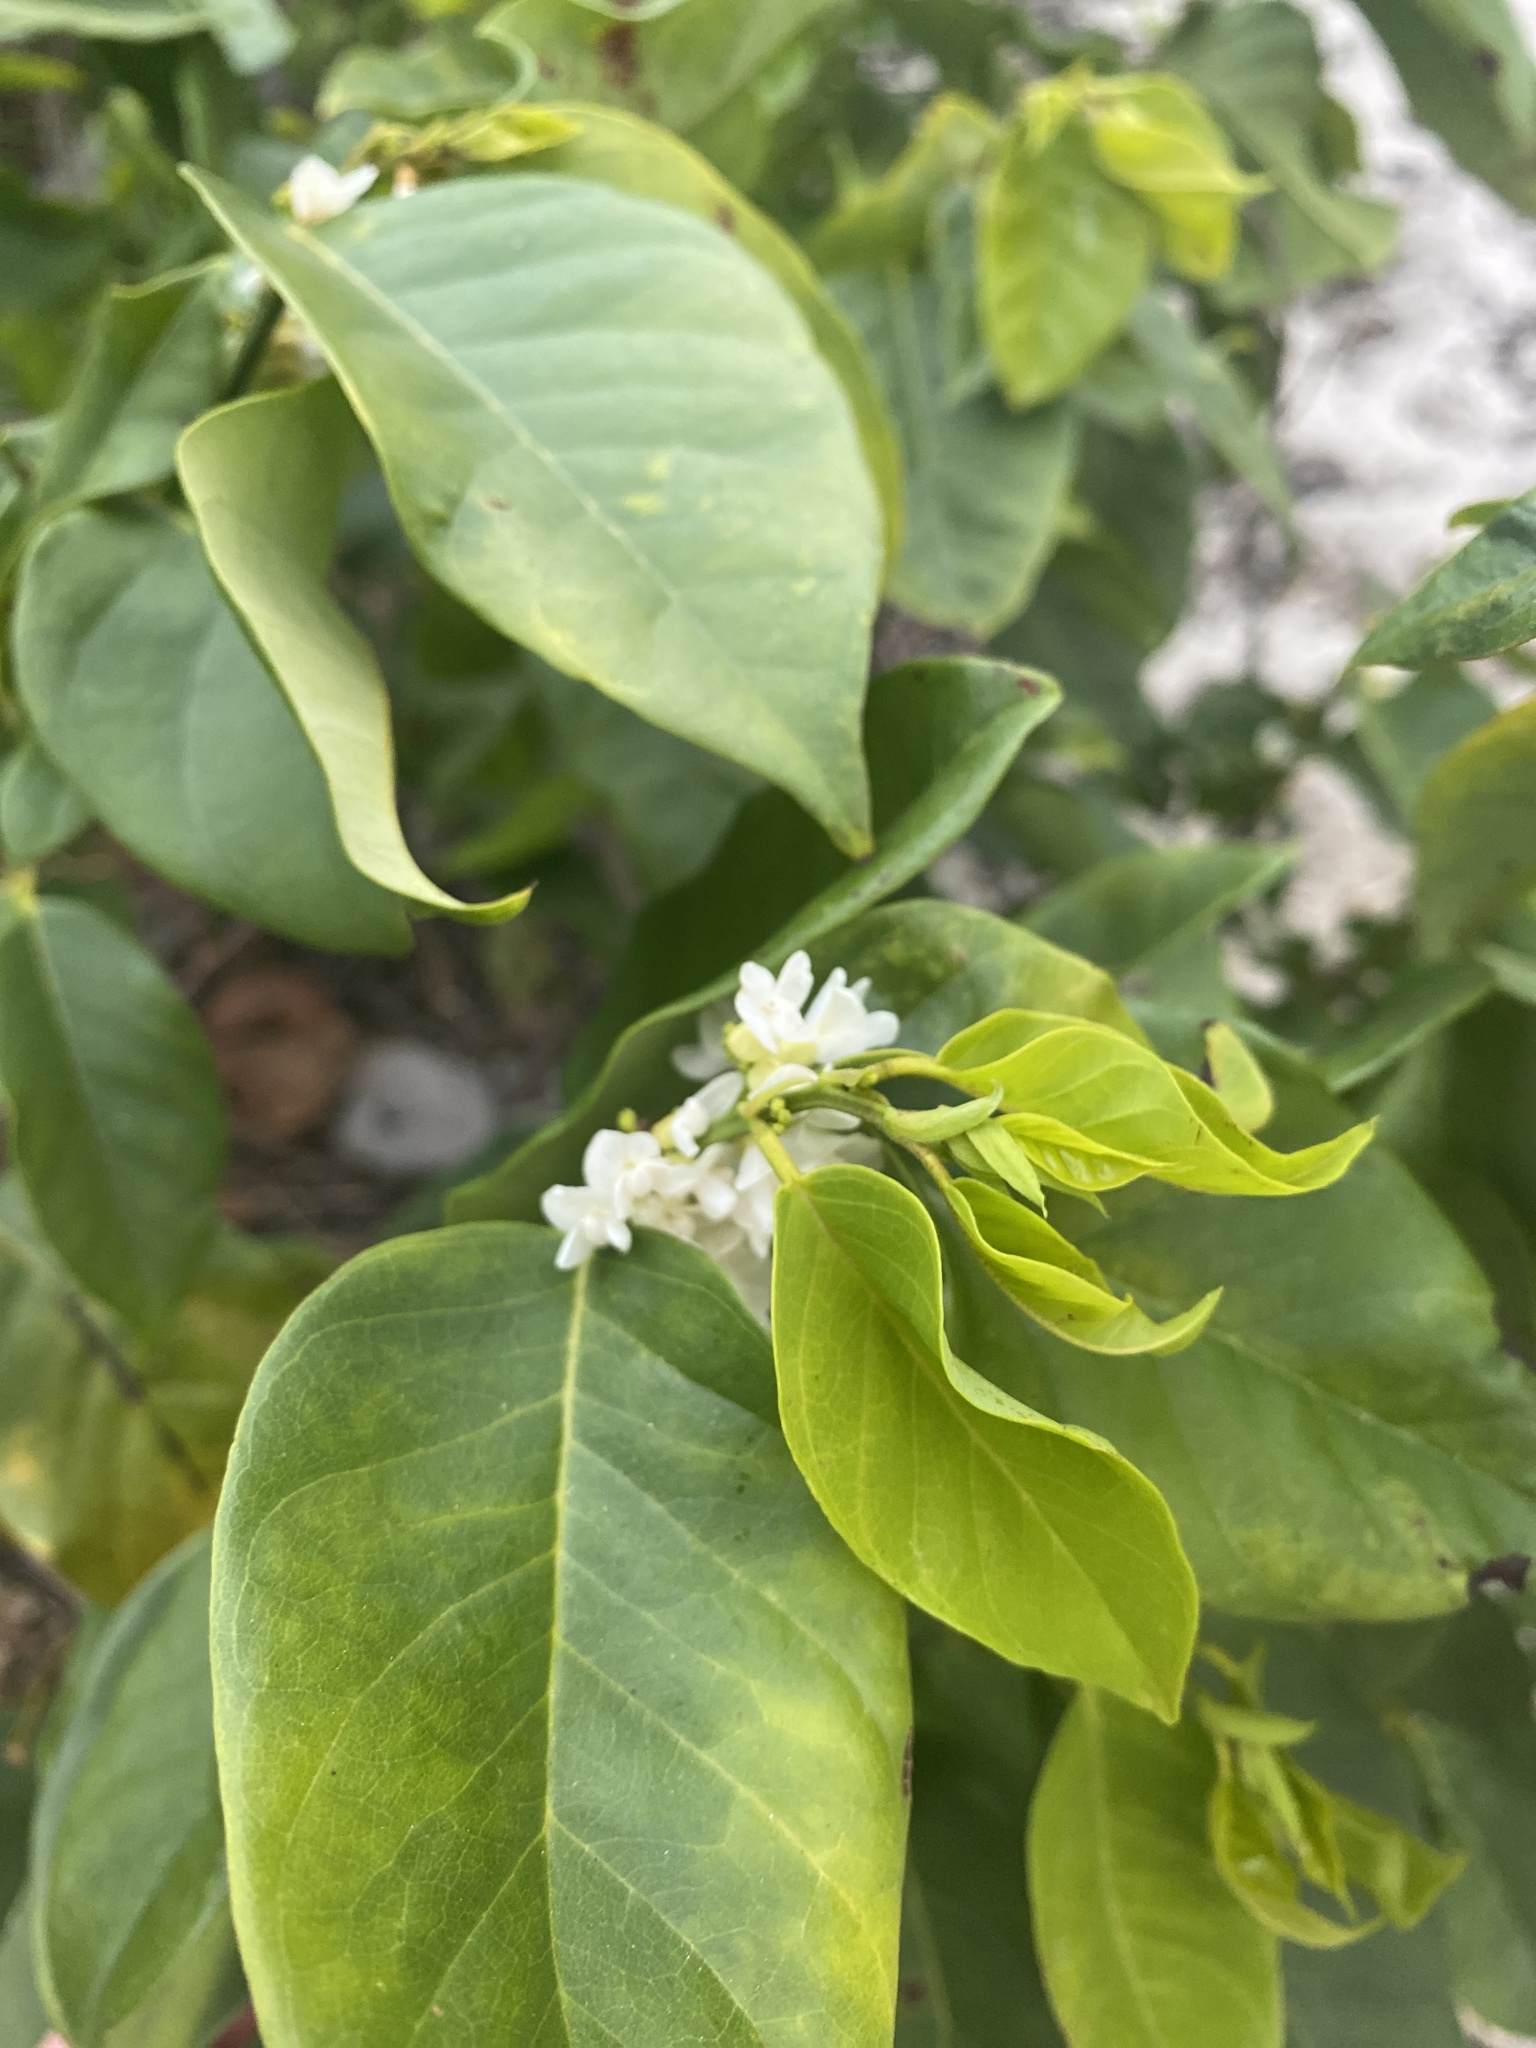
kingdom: Plantae
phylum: Tracheophyta
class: Magnoliopsida
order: Fabales
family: Fabaceae
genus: Dalbergia
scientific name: Dalbergia ecastaphyllum
